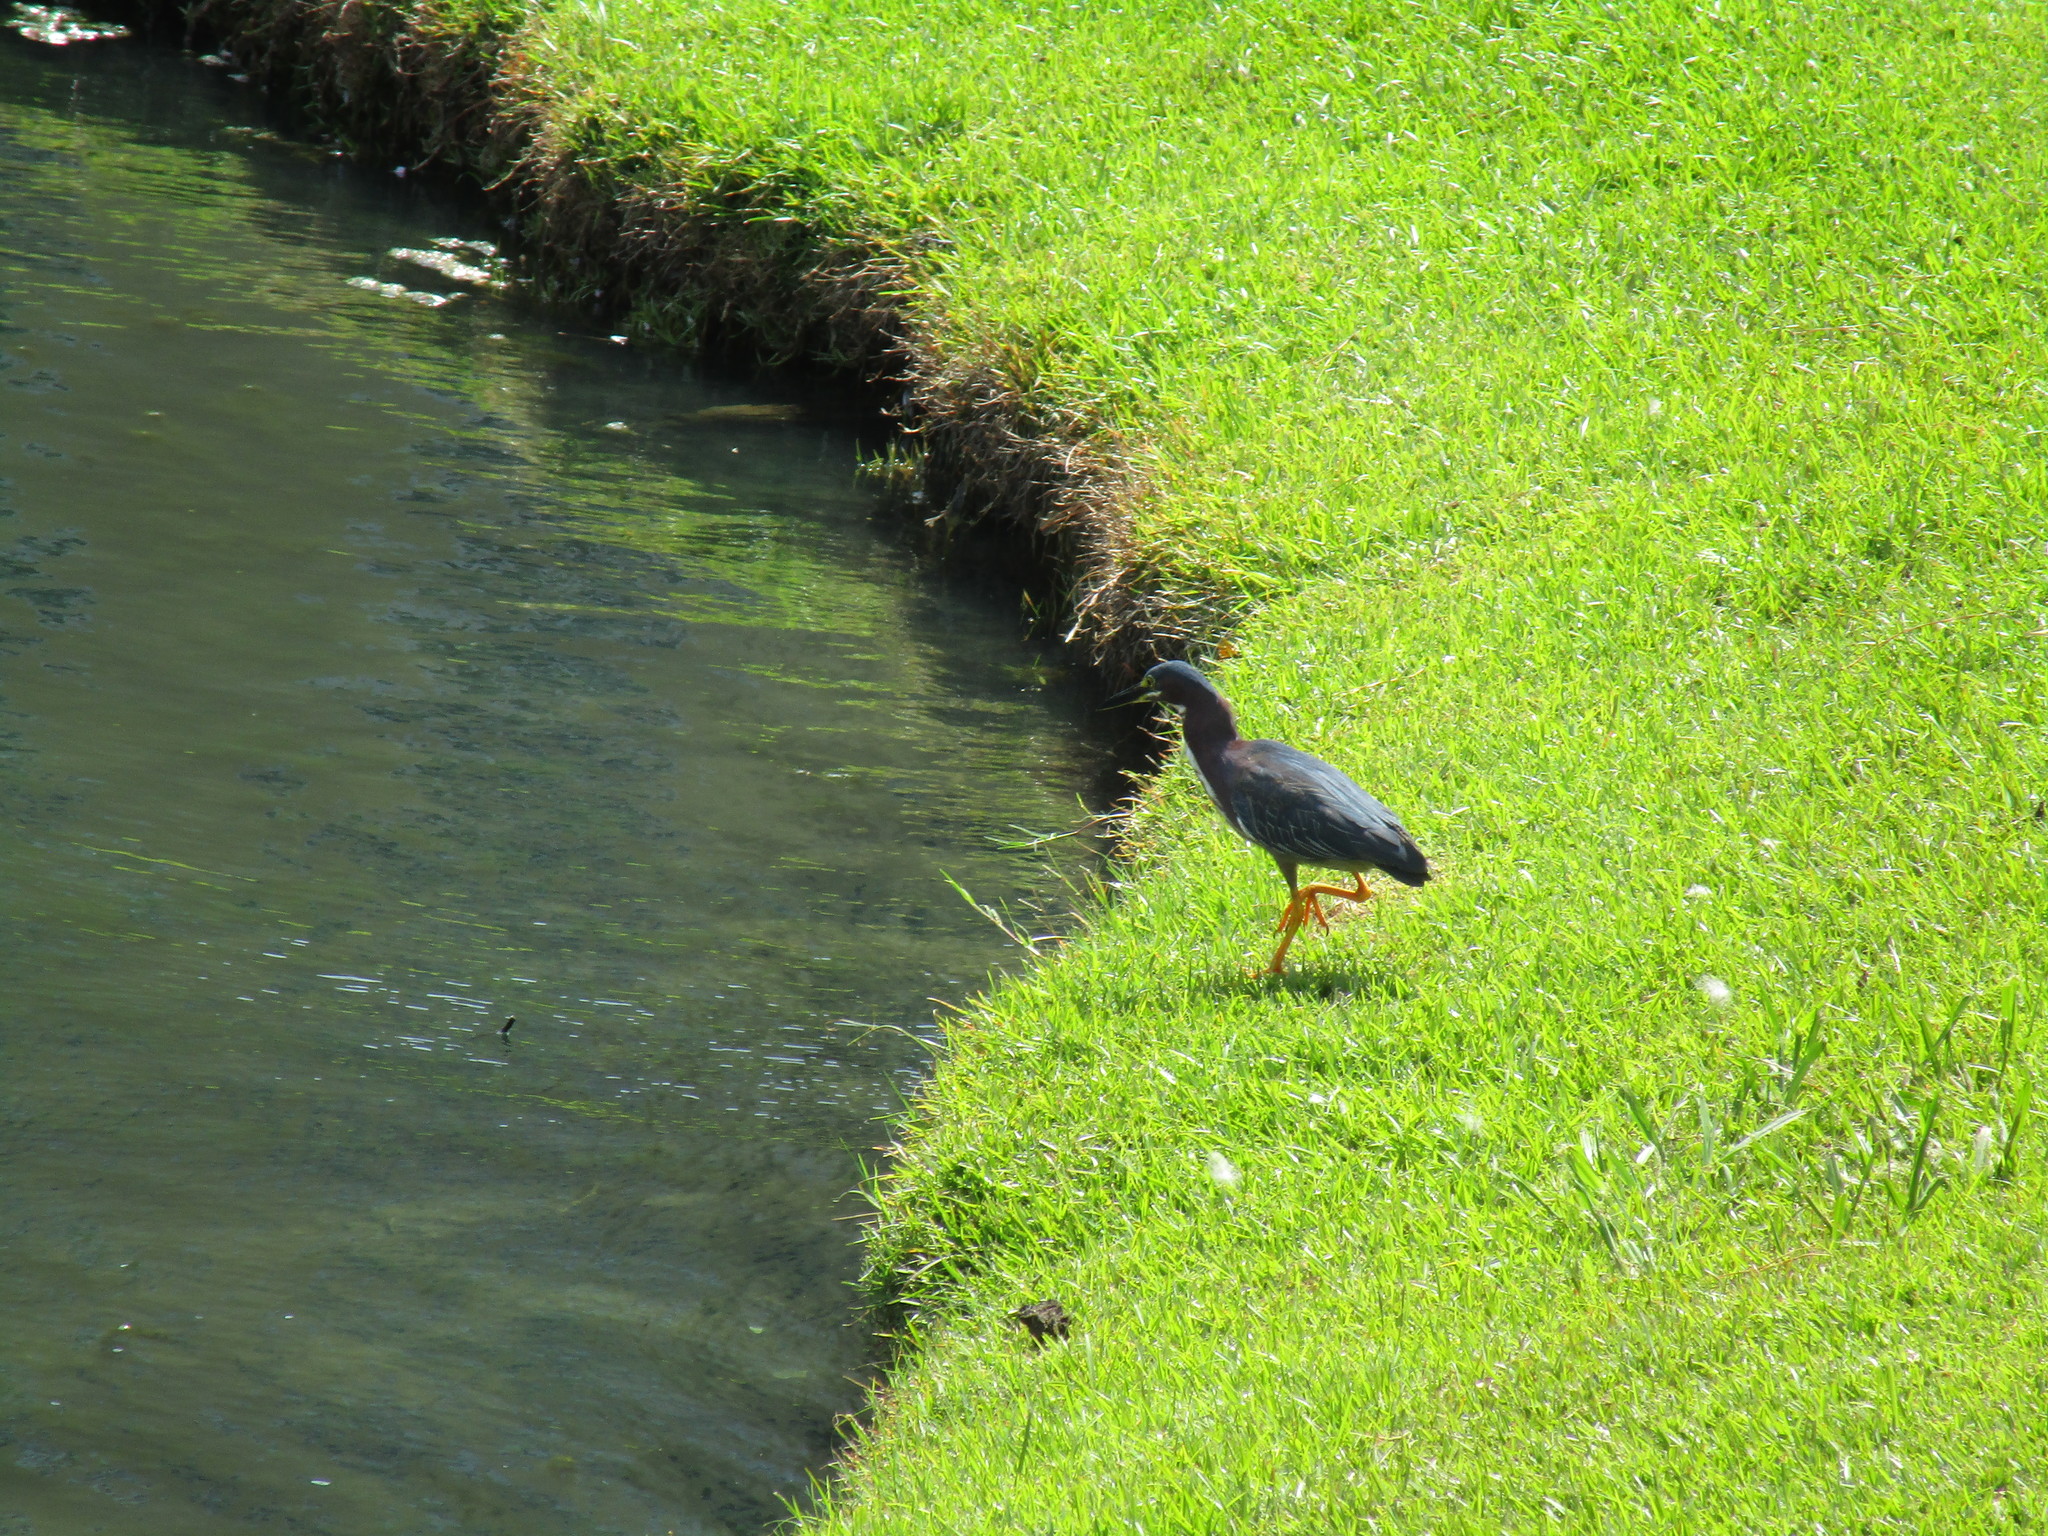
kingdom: Animalia
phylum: Chordata
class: Aves
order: Pelecaniformes
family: Ardeidae
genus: Butorides
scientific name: Butorides virescens
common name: Green heron
